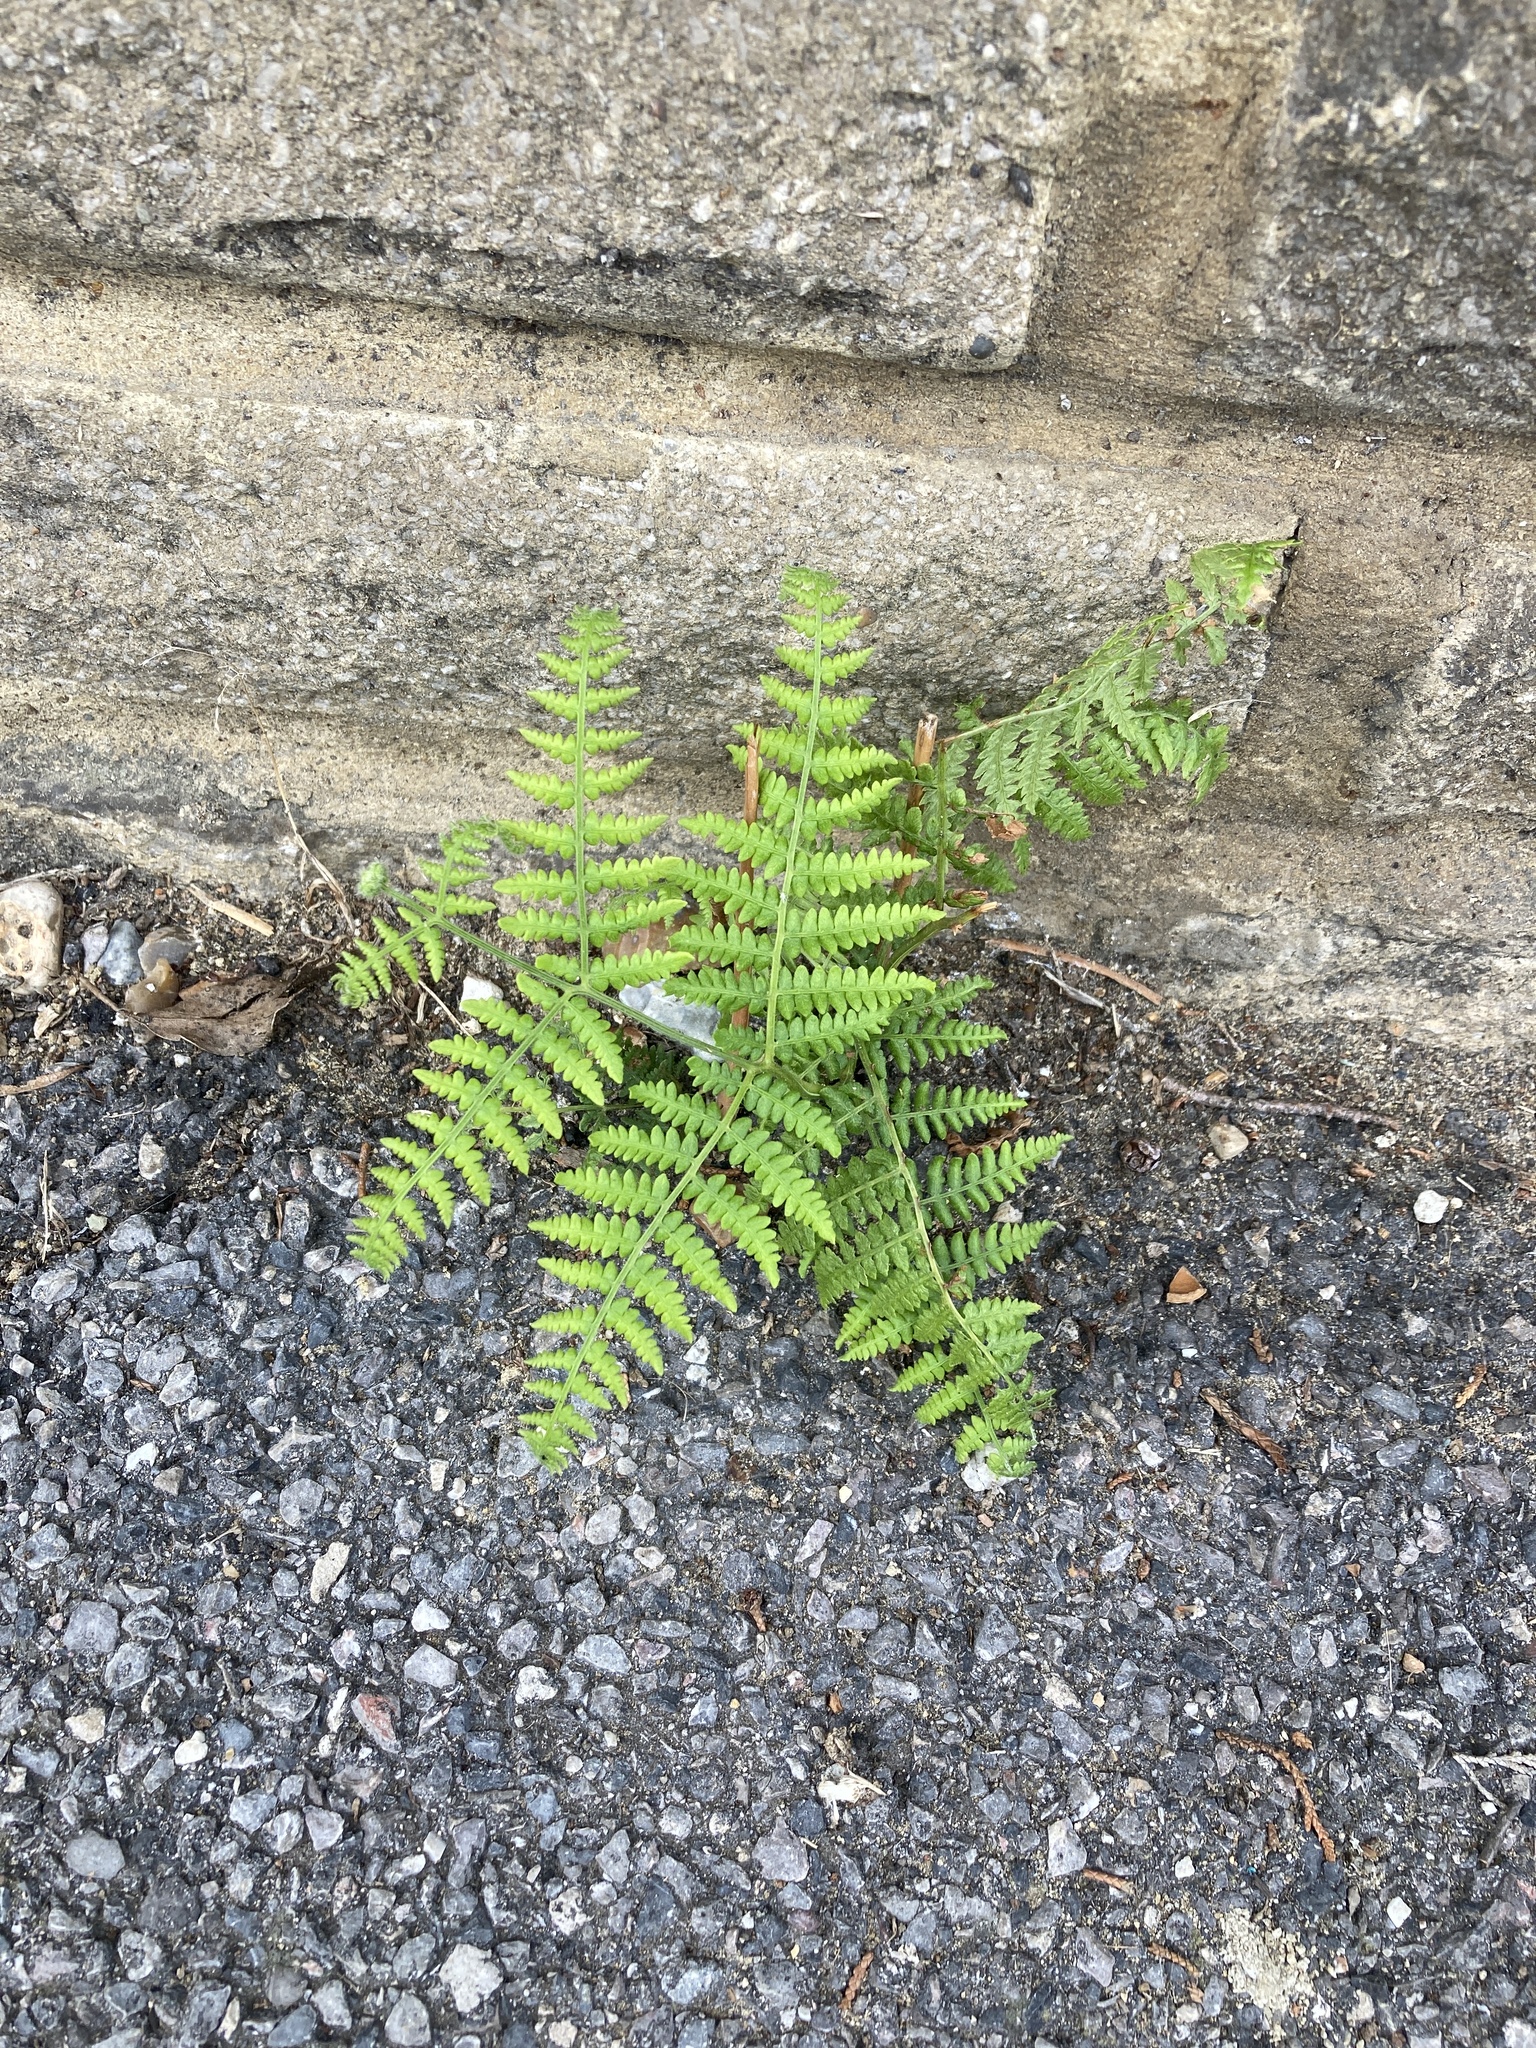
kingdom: Plantae
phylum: Tracheophyta
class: Polypodiopsida
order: Polypodiales
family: Dennstaedtiaceae
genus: Pteridium
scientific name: Pteridium aquilinum
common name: Bracken
